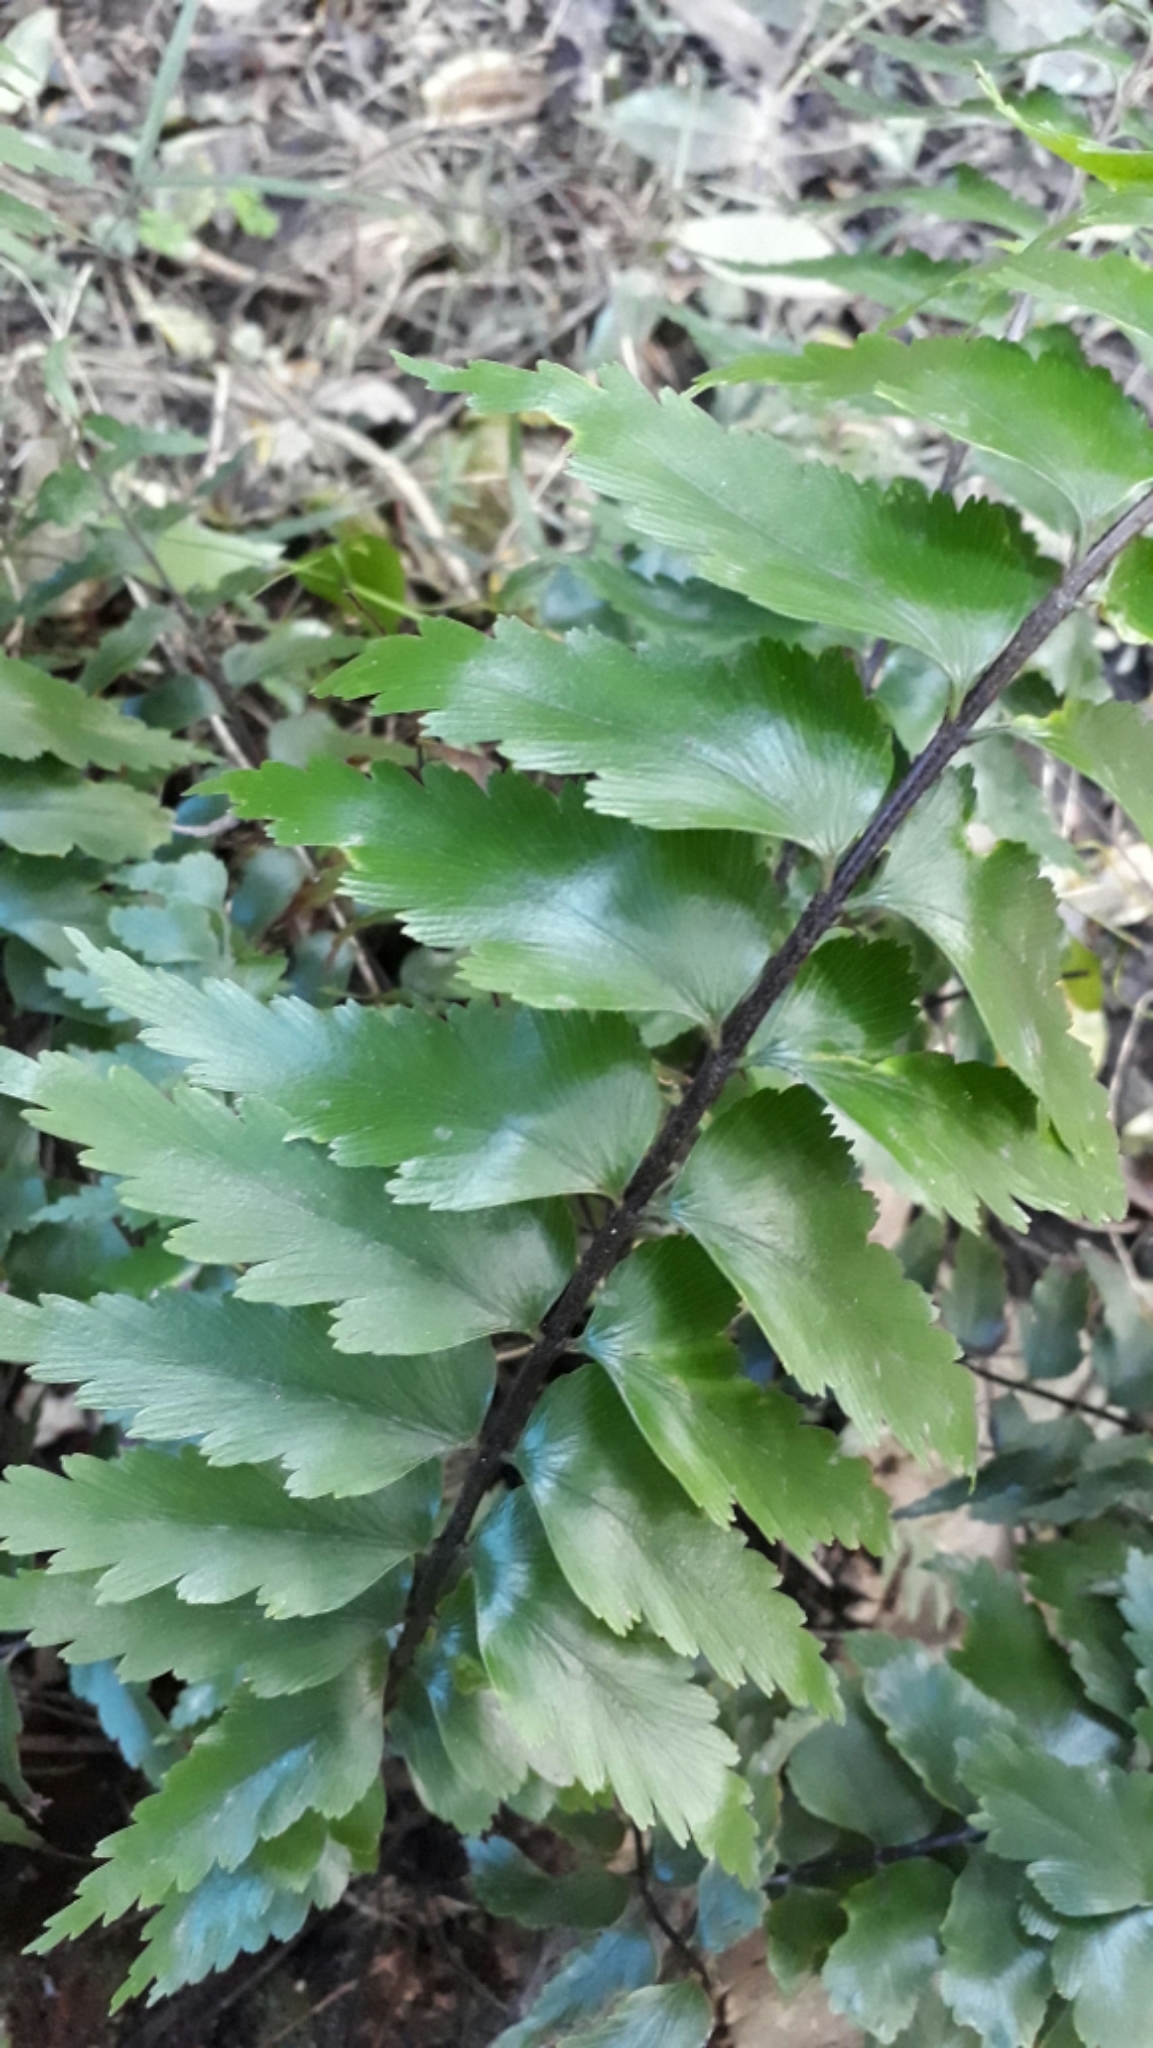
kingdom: Plantae
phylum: Tracheophyta
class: Polypodiopsida
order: Polypodiales
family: Aspleniaceae
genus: Asplenium
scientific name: Asplenium polyodon
